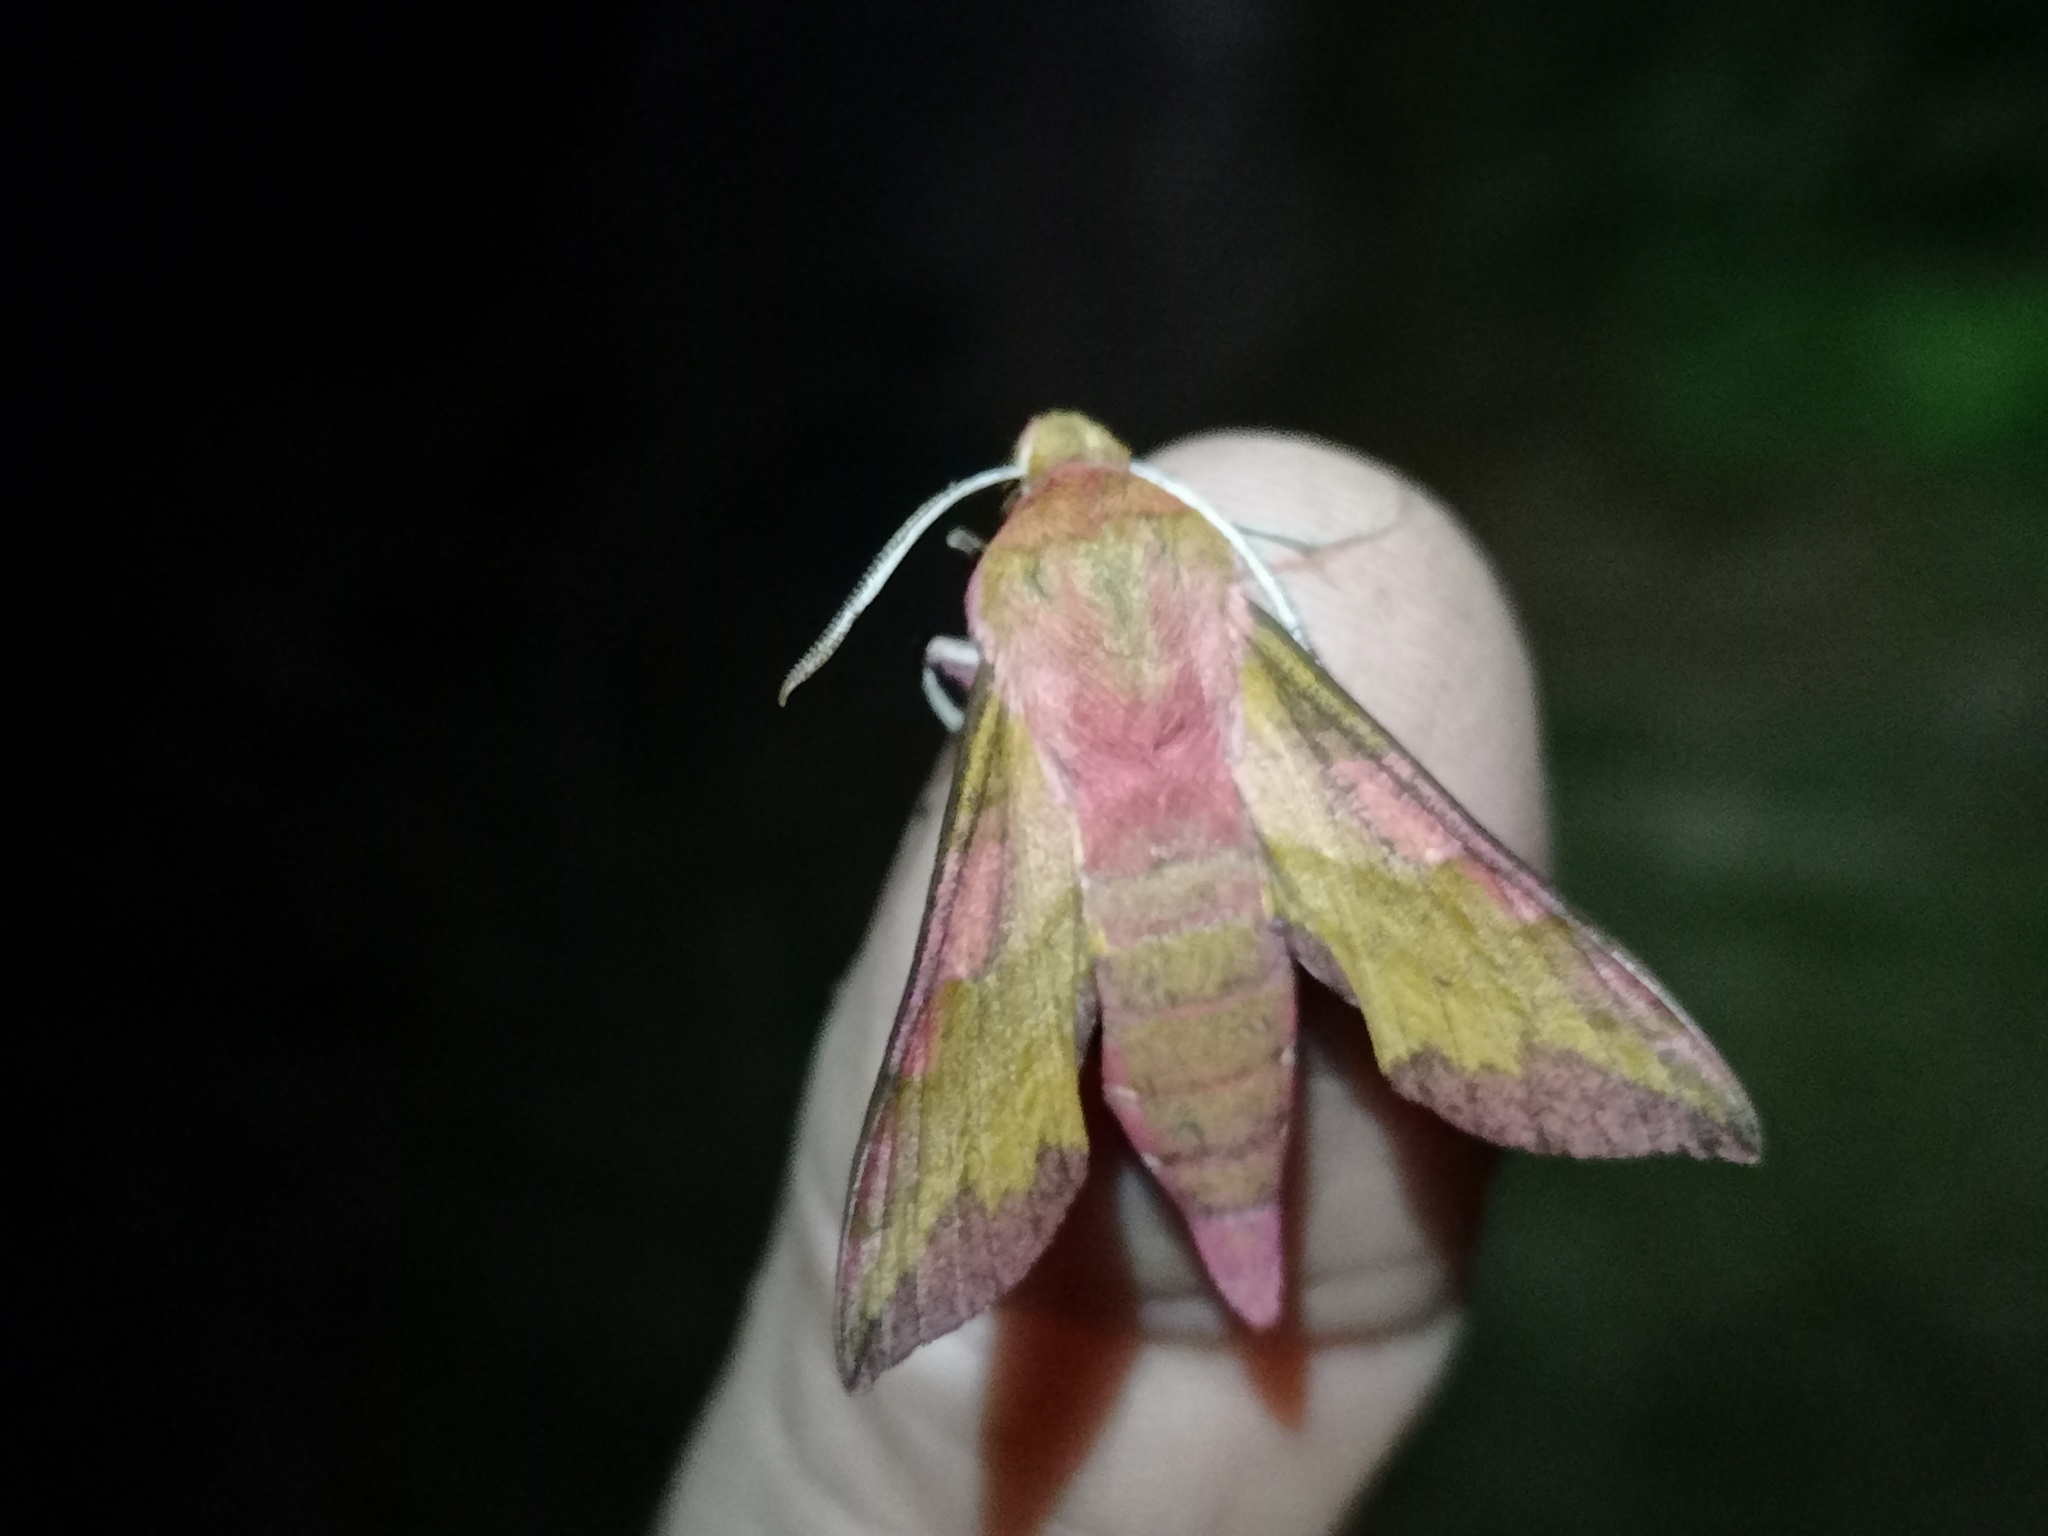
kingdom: Animalia
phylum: Arthropoda
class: Insecta
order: Lepidoptera
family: Sphingidae
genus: Deilephila
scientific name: Deilephila porcellus
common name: Small elephant hawk-moth
